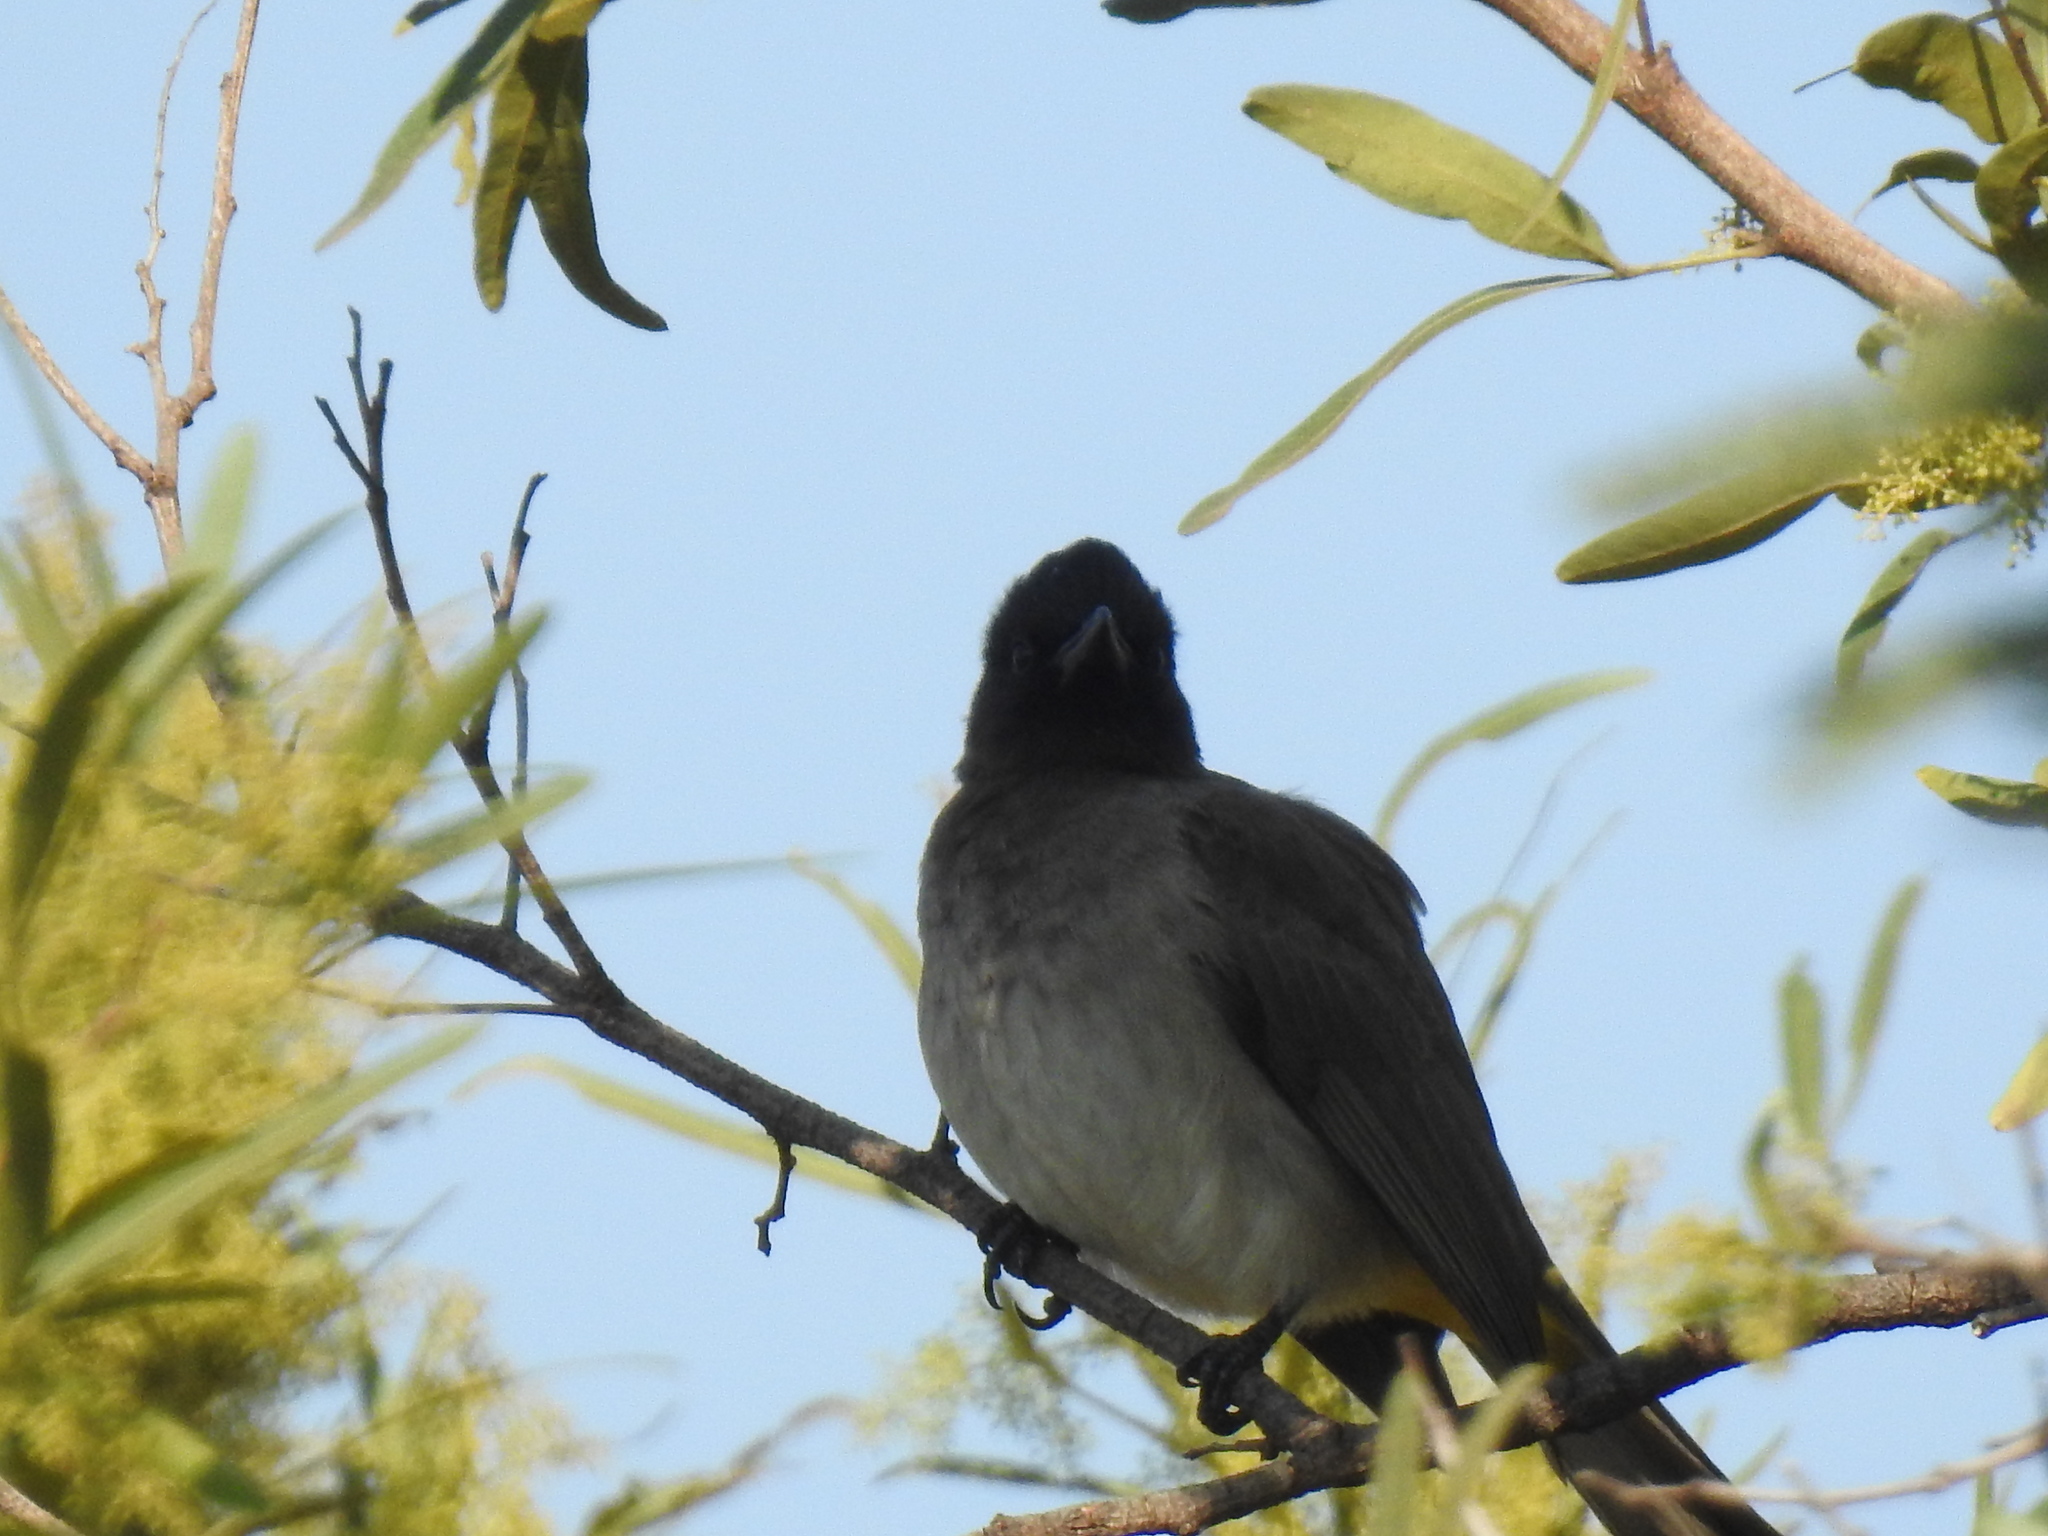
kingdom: Animalia
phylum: Chordata
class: Aves
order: Passeriformes
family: Pycnonotidae
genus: Pycnonotus
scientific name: Pycnonotus barbatus
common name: Common bulbul
